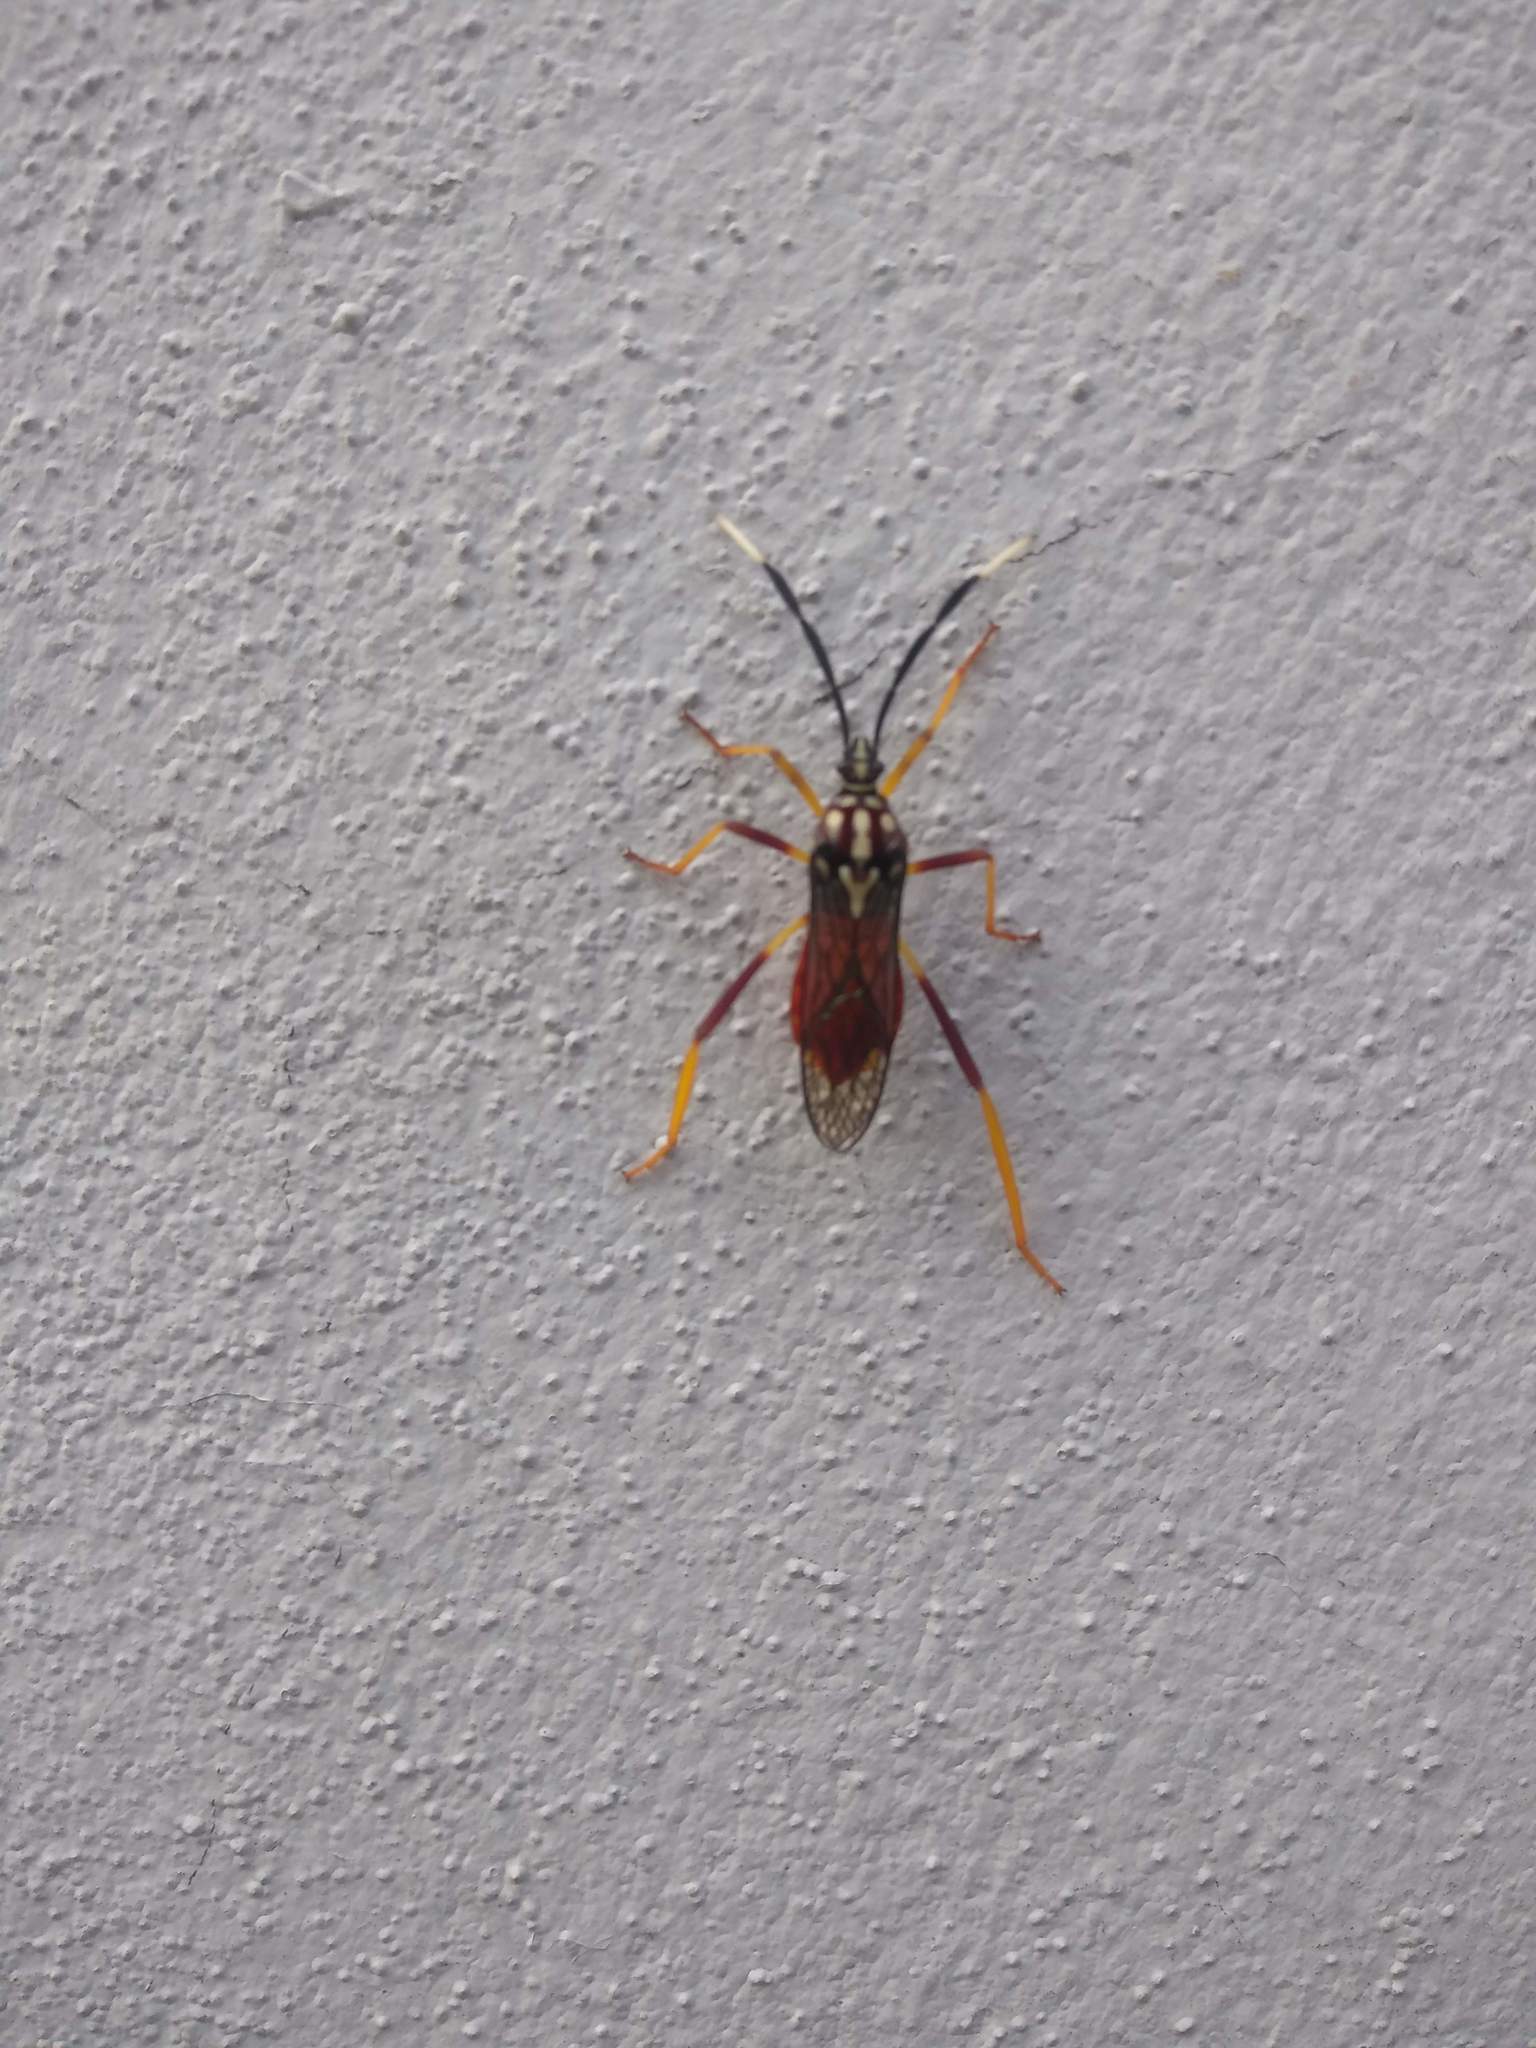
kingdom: Animalia
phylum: Arthropoda
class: Insecta
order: Hemiptera
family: Coreidae
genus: Holhymenia
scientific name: Holhymenia histrio
